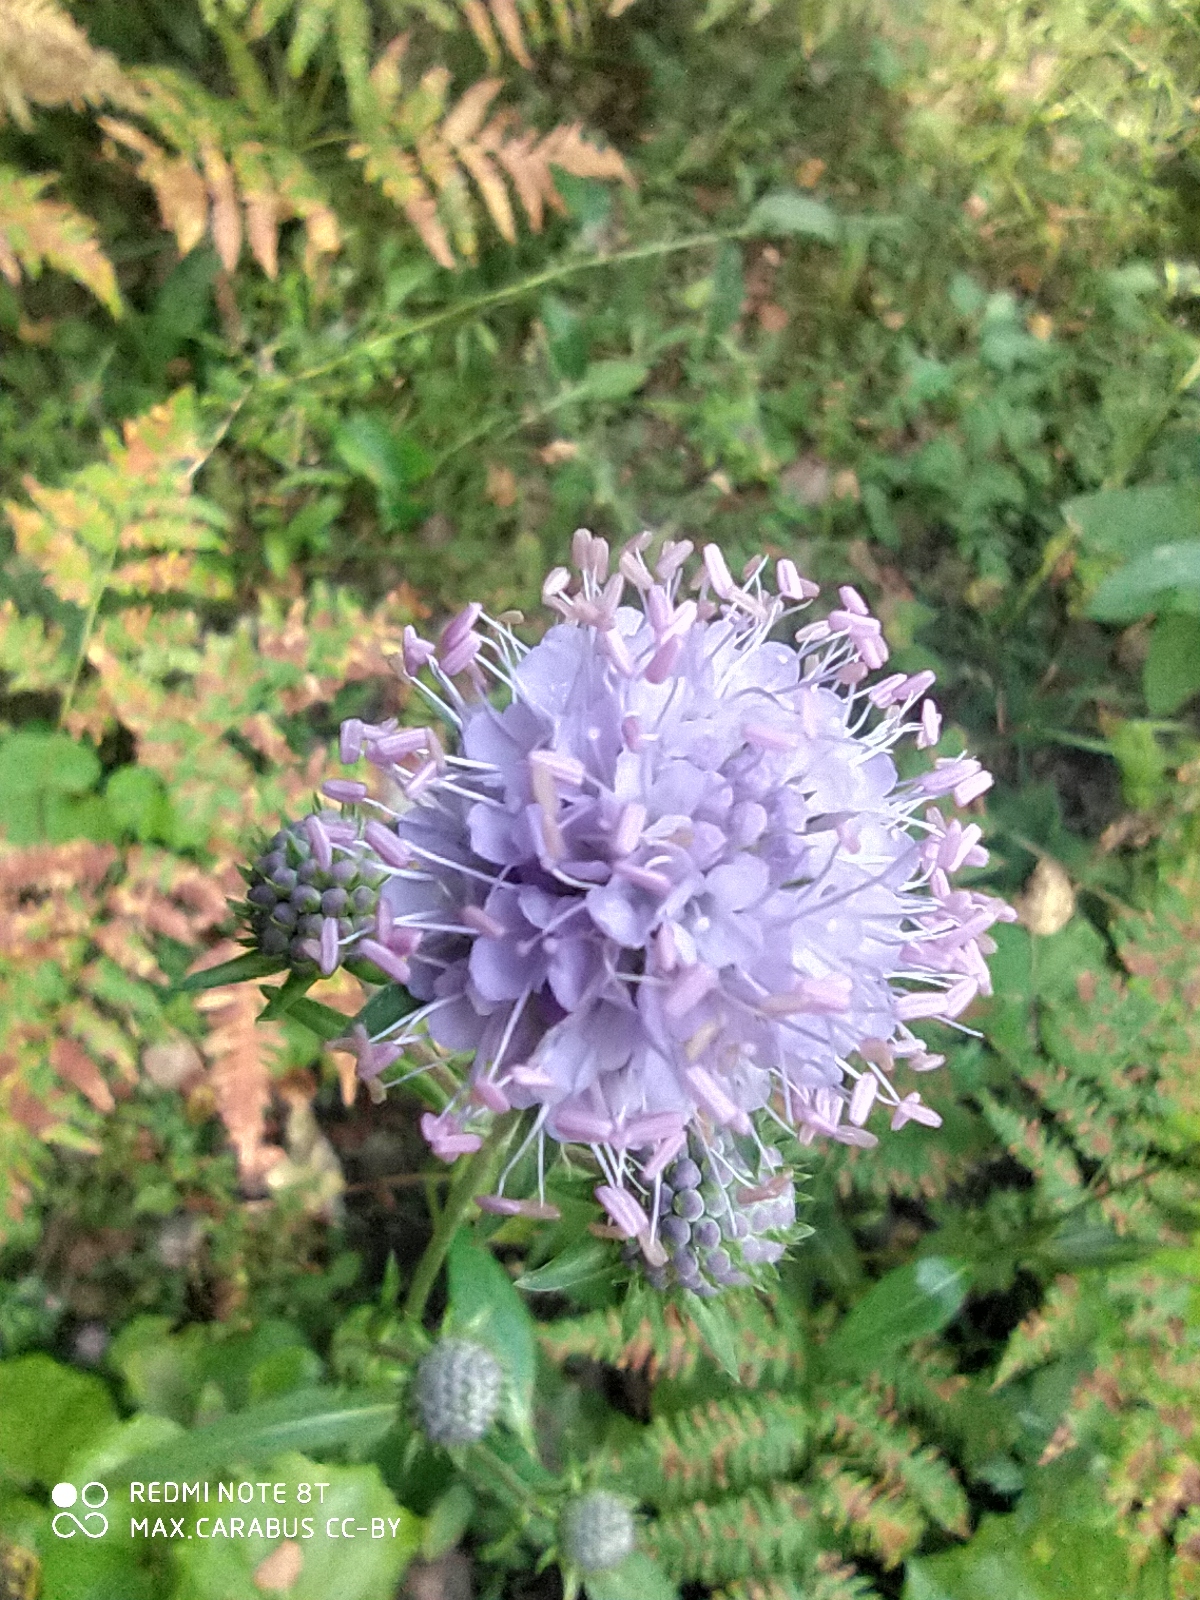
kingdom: Plantae
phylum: Tracheophyta
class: Magnoliopsida
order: Dipsacales
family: Caprifoliaceae
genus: Succisa
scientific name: Succisa pratensis
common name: Devil's-bit
